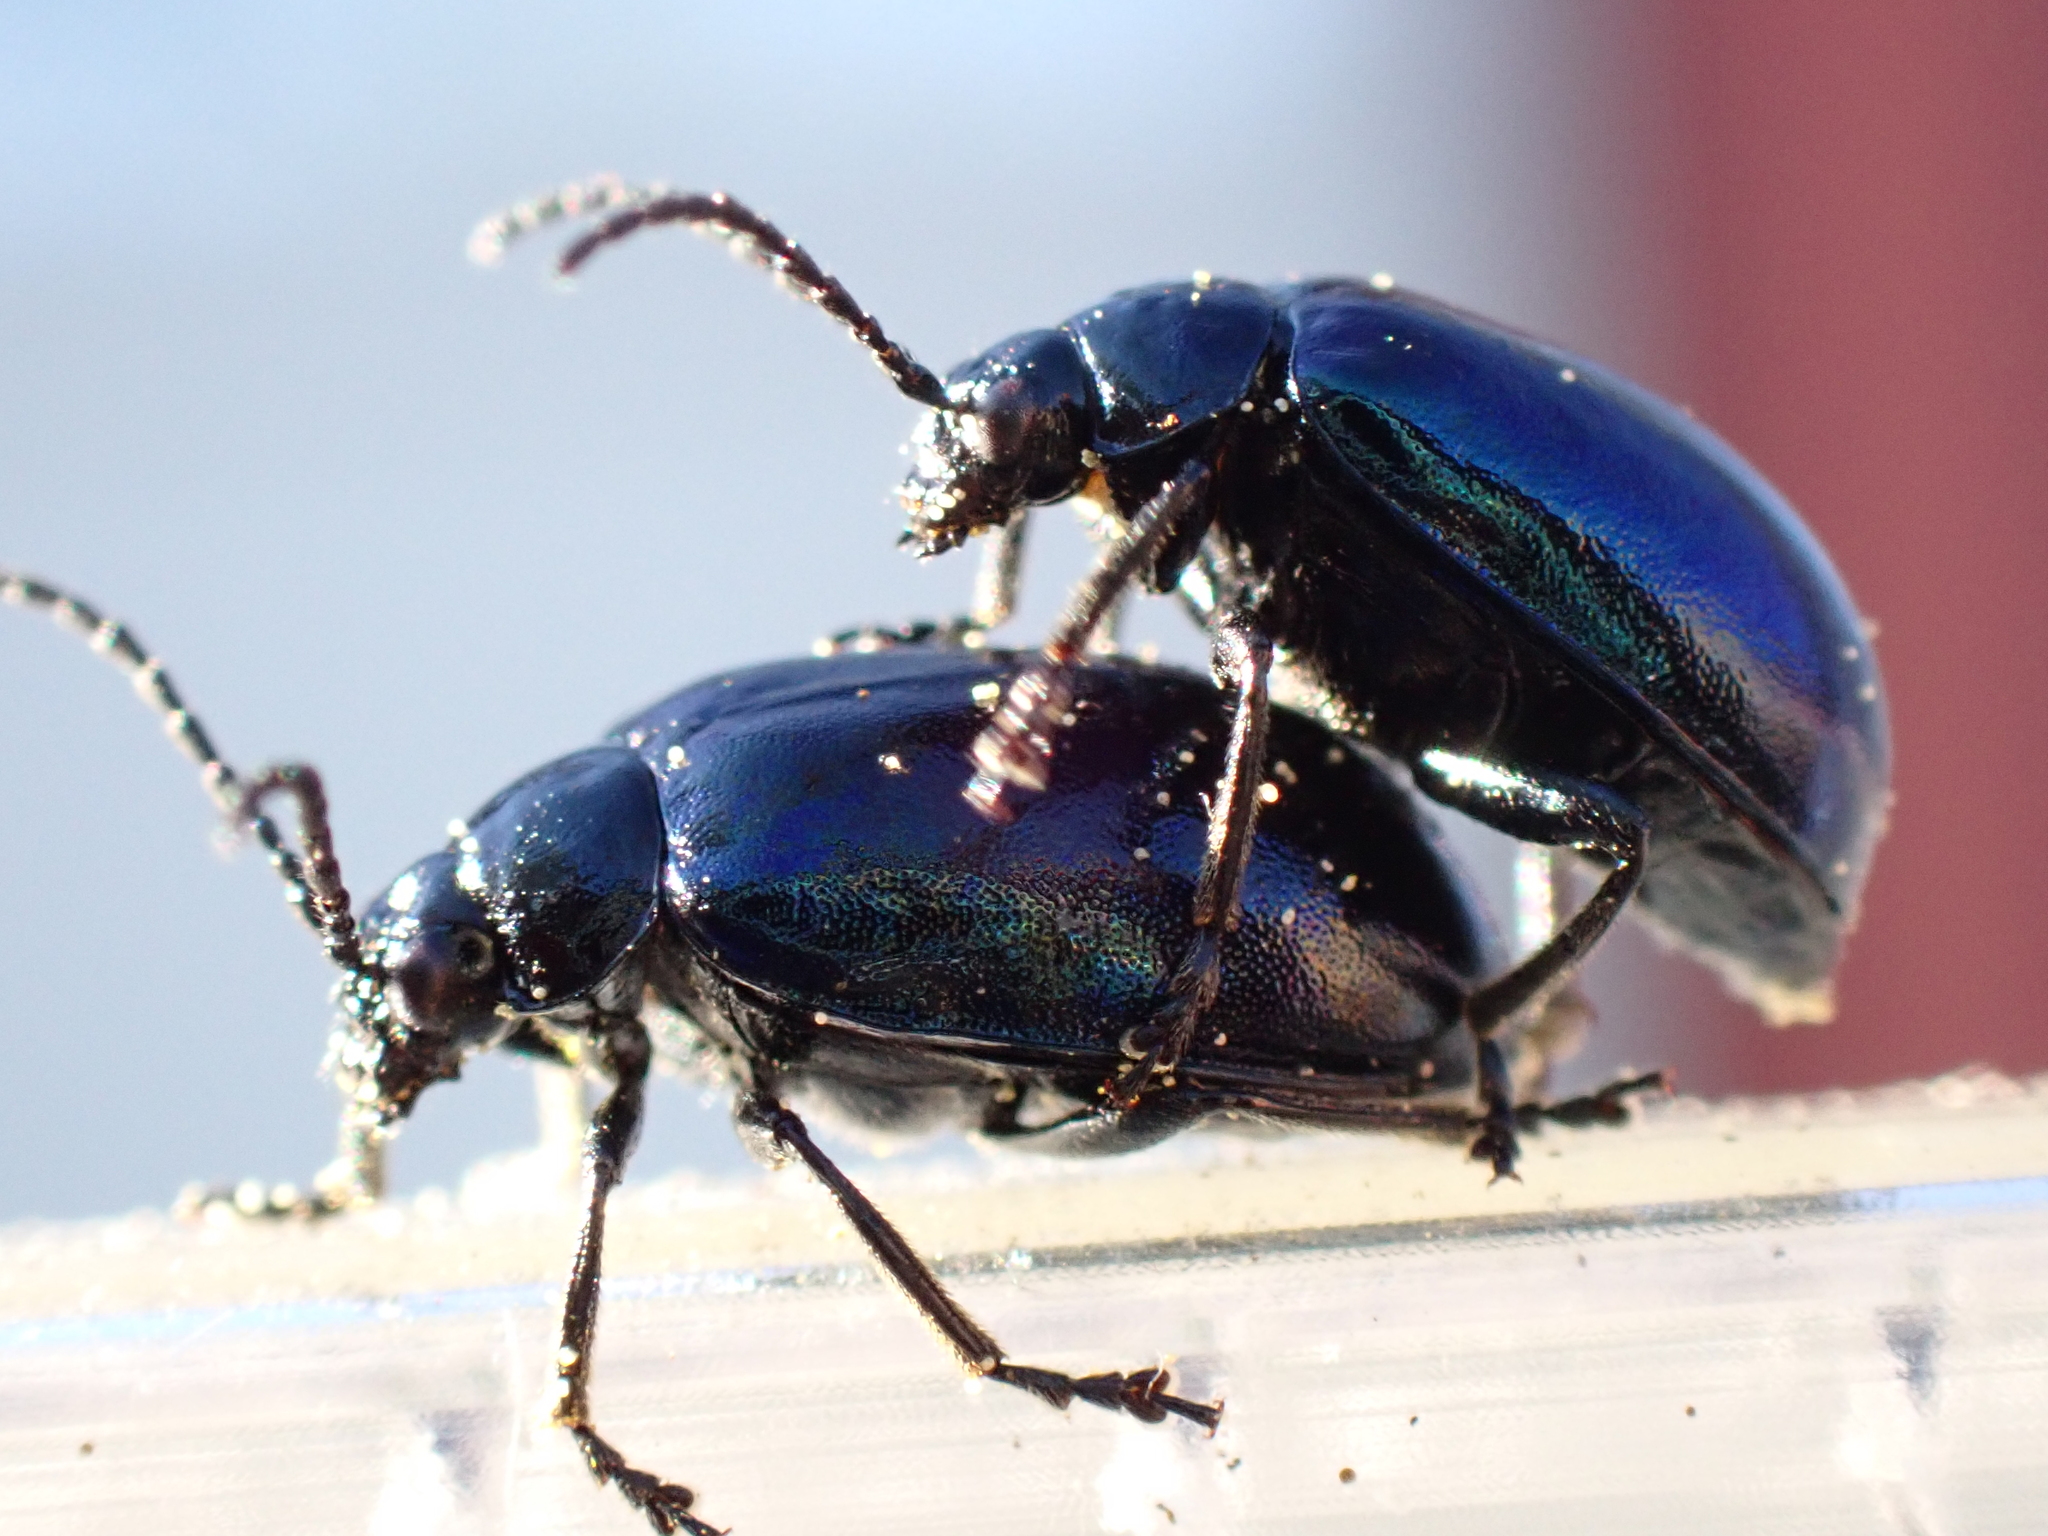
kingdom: Animalia
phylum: Arthropoda
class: Insecta
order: Coleoptera
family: Chrysomelidae
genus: Agelastica
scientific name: Agelastica alni
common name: Alder leaf beetle
